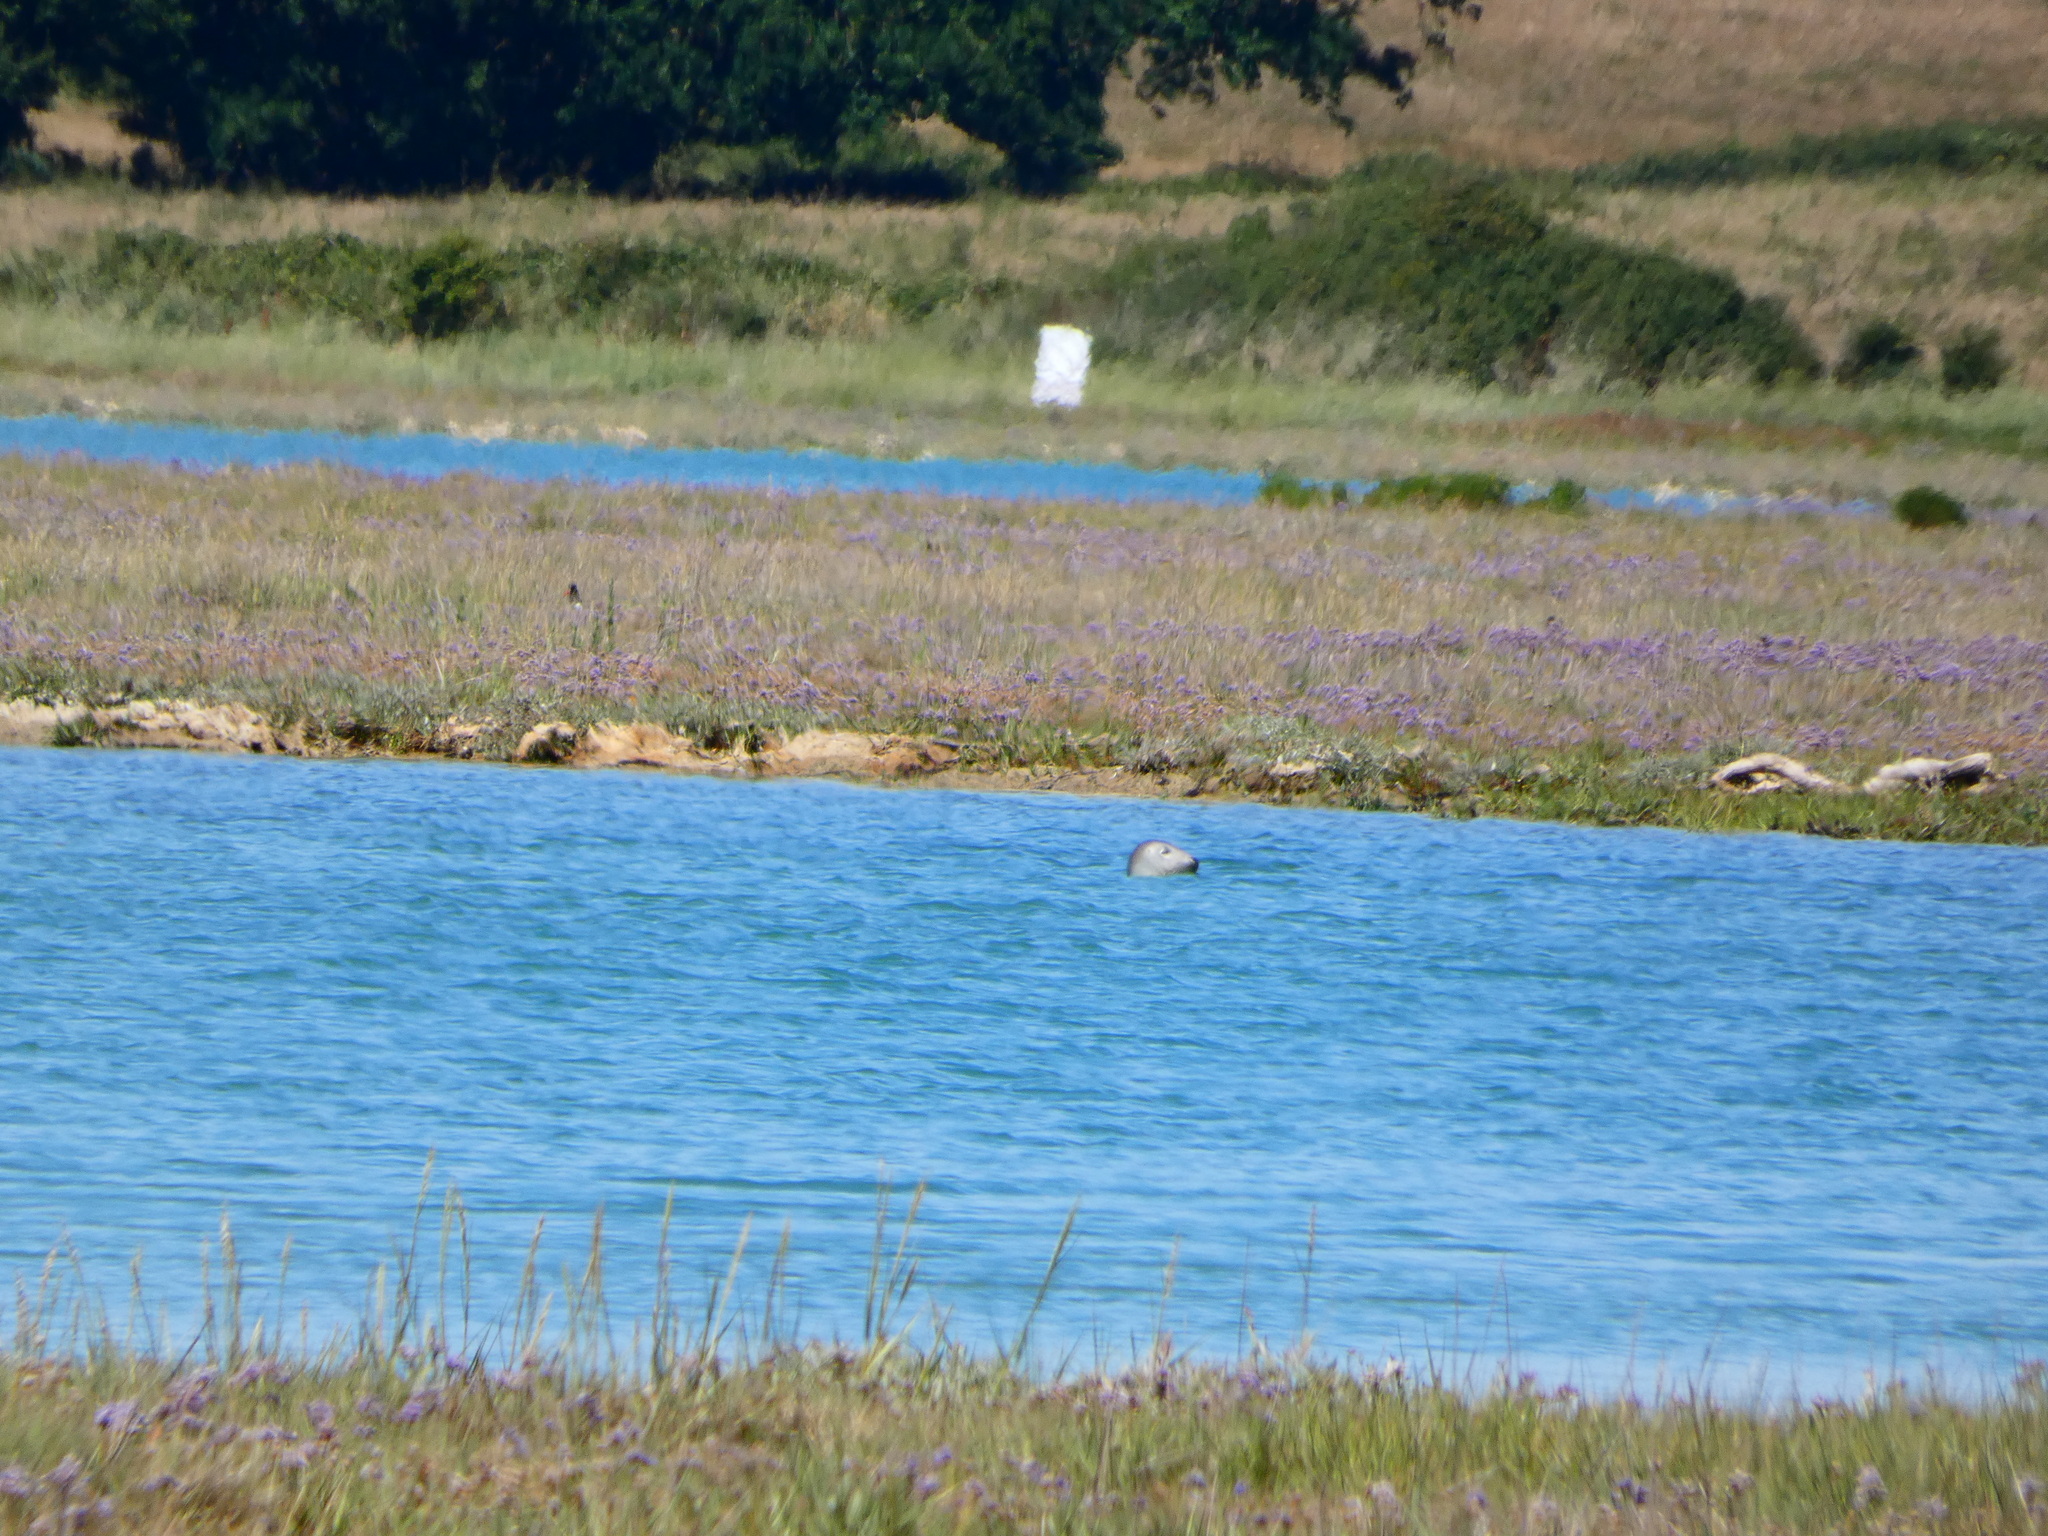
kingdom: Animalia
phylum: Chordata
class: Mammalia
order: Carnivora
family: Phocidae
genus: Halichoerus
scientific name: Halichoerus grypus
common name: Grey seal
